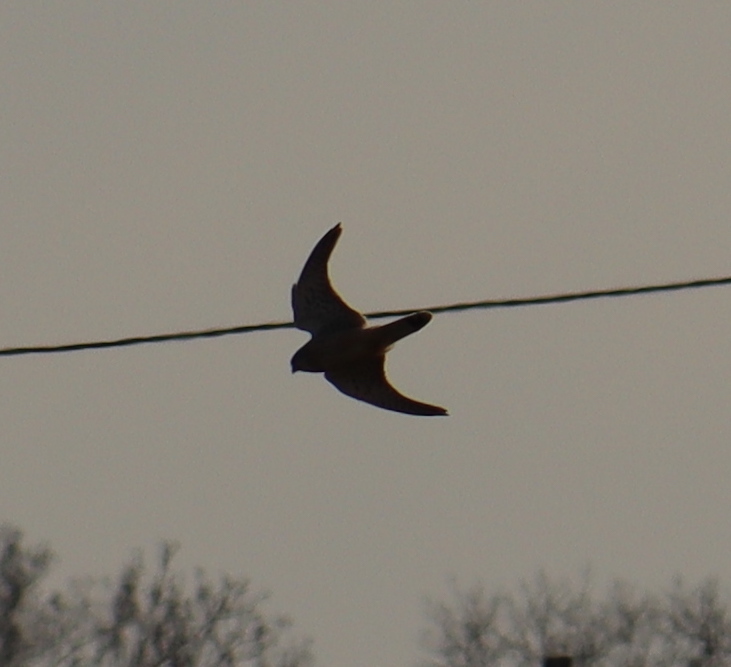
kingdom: Animalia
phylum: Chordata
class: Aves
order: Falconiformes
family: Falconidae
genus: Falco
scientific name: Falco tinnunculus
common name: Common kestrel
